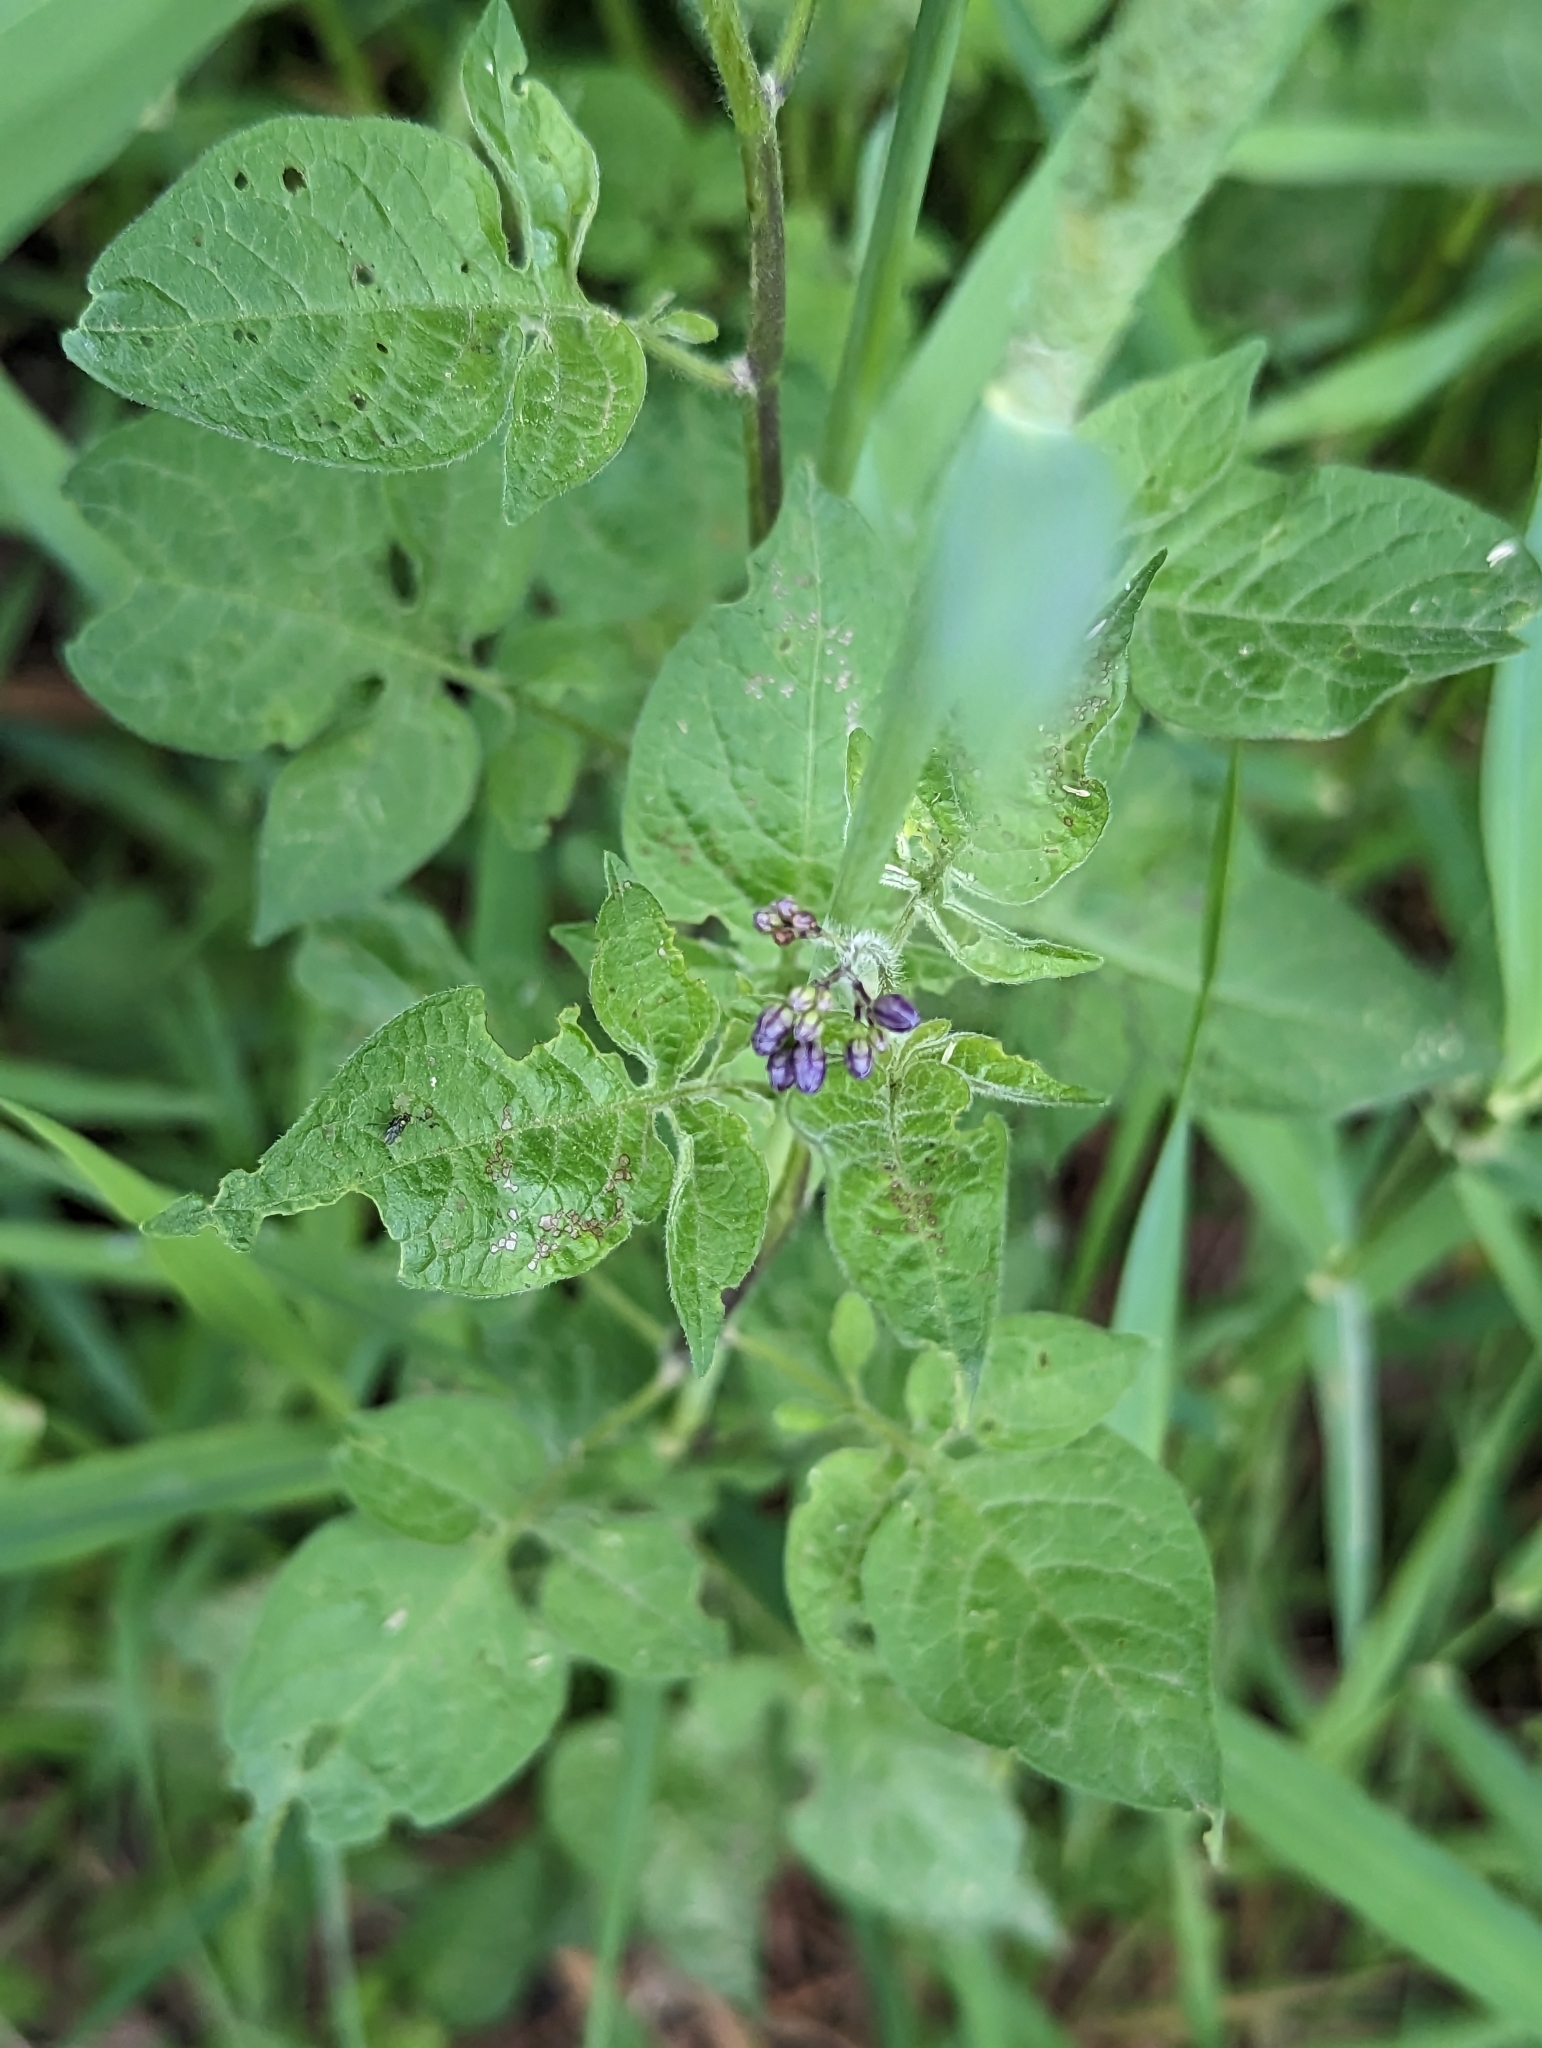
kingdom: Plantae
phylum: Tracheophyta
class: Magnoliopsida
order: Solanales
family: Solanaceae
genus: Solanum
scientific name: Solanum dulcamara
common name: Climbing nightshade
